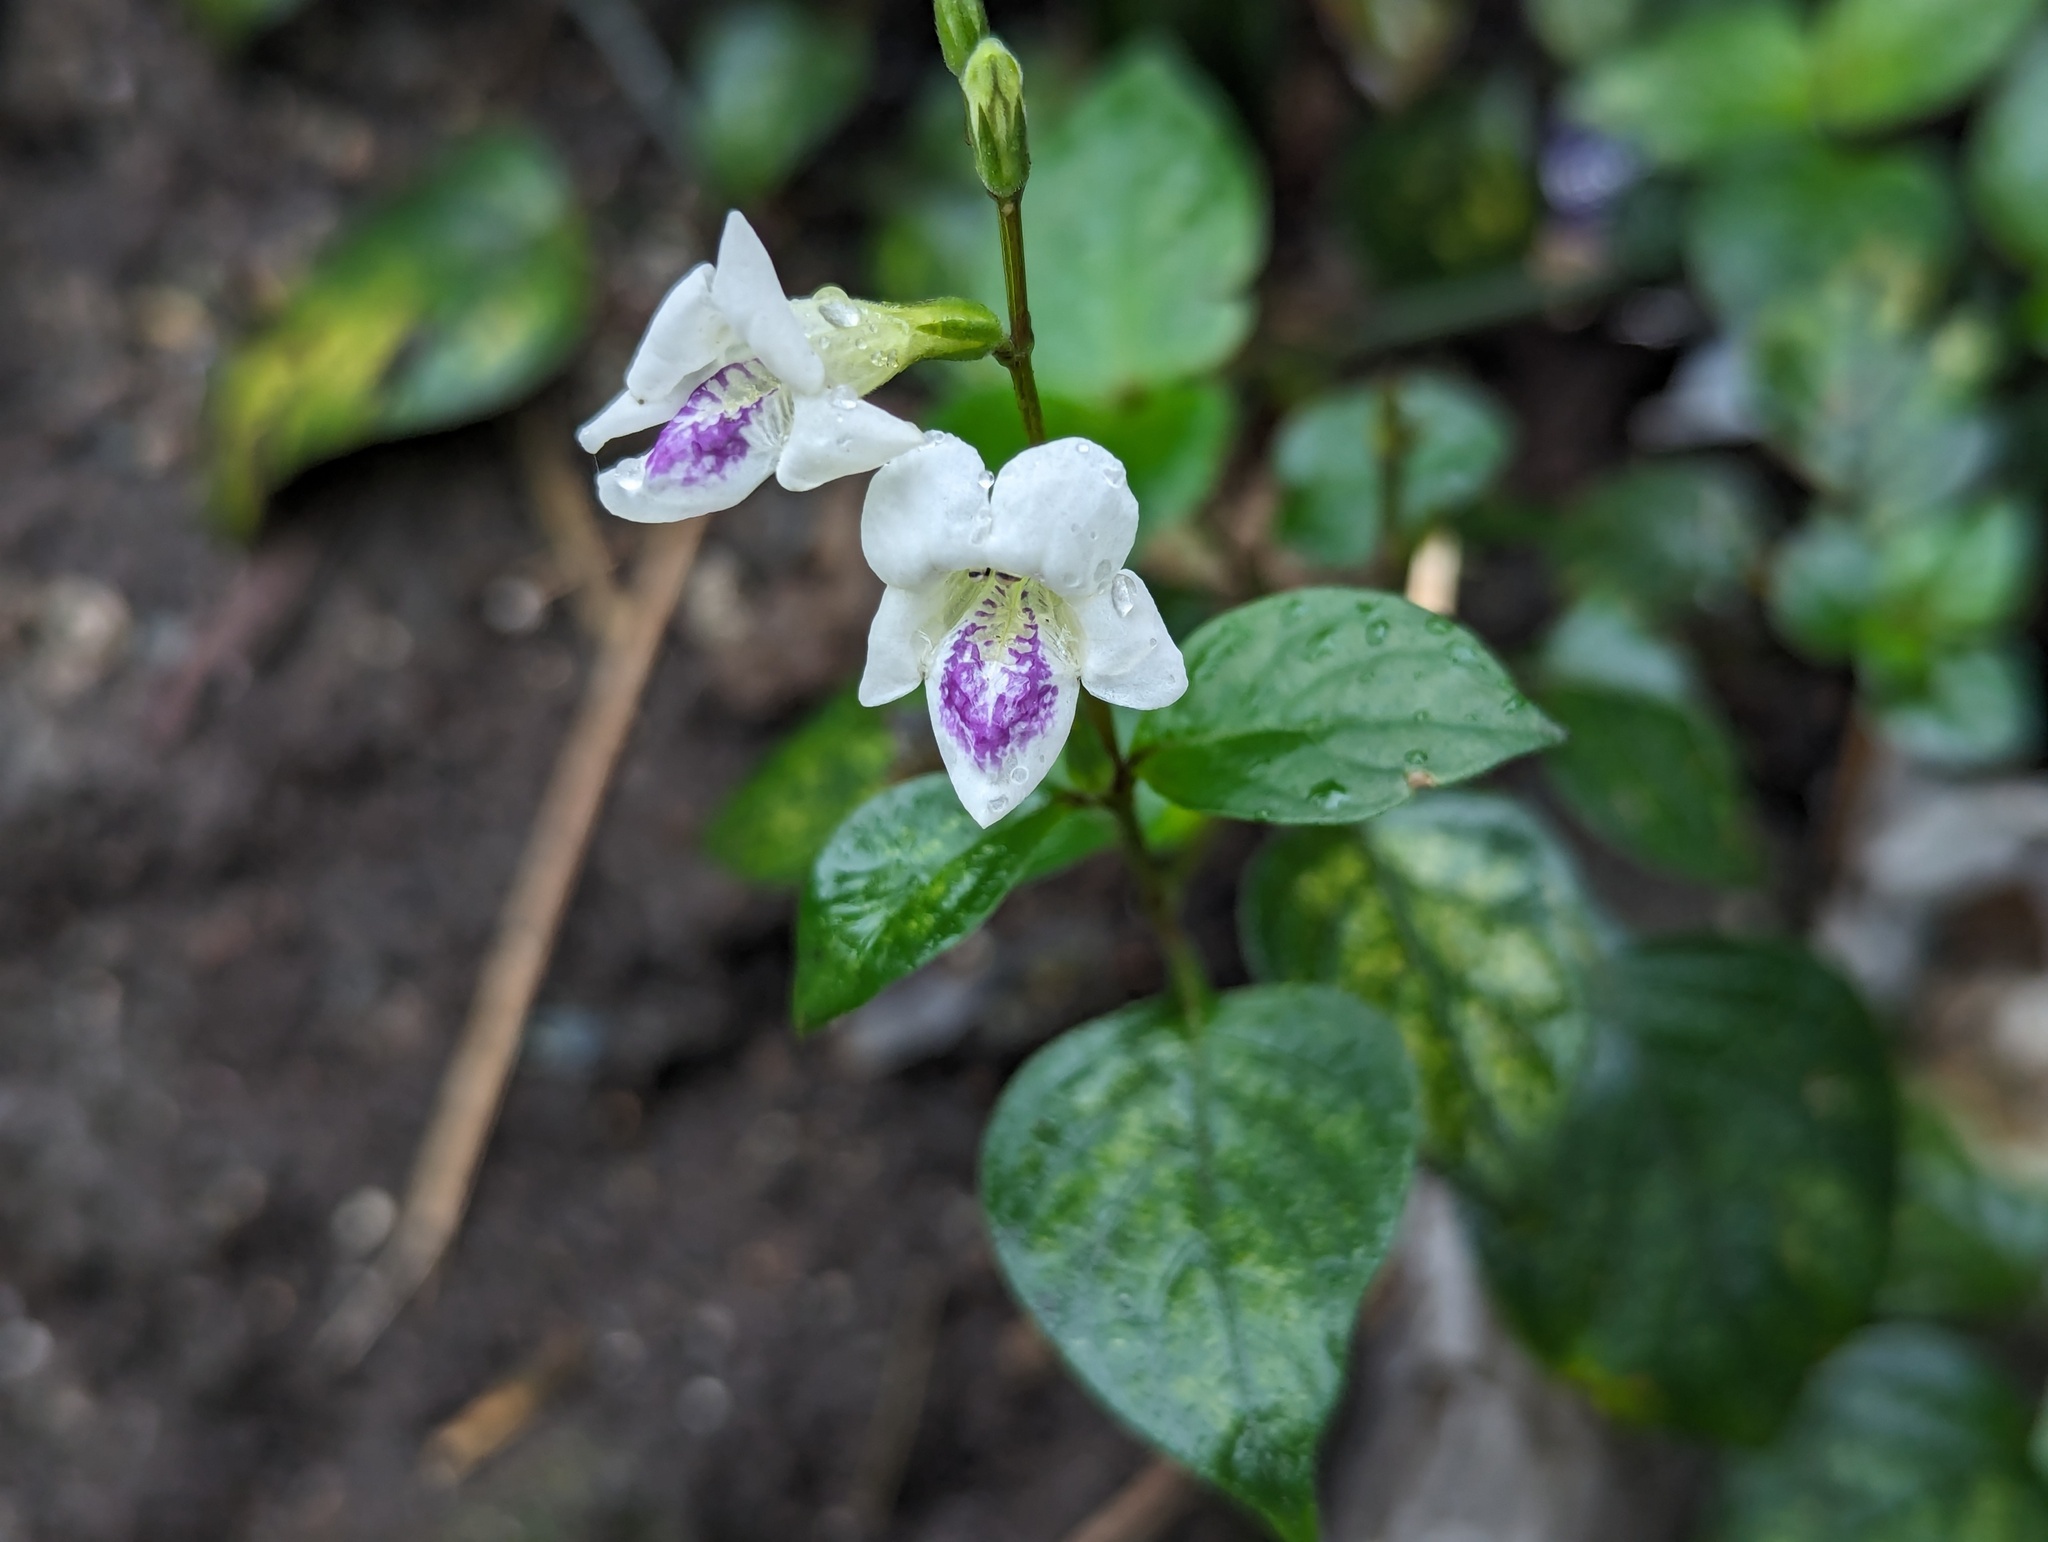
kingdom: Plantae
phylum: Tracheophyta
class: Magnoliopsida
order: Lamiales
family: Acanthaceae
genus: Asystasia
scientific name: Asystasia intrusa
